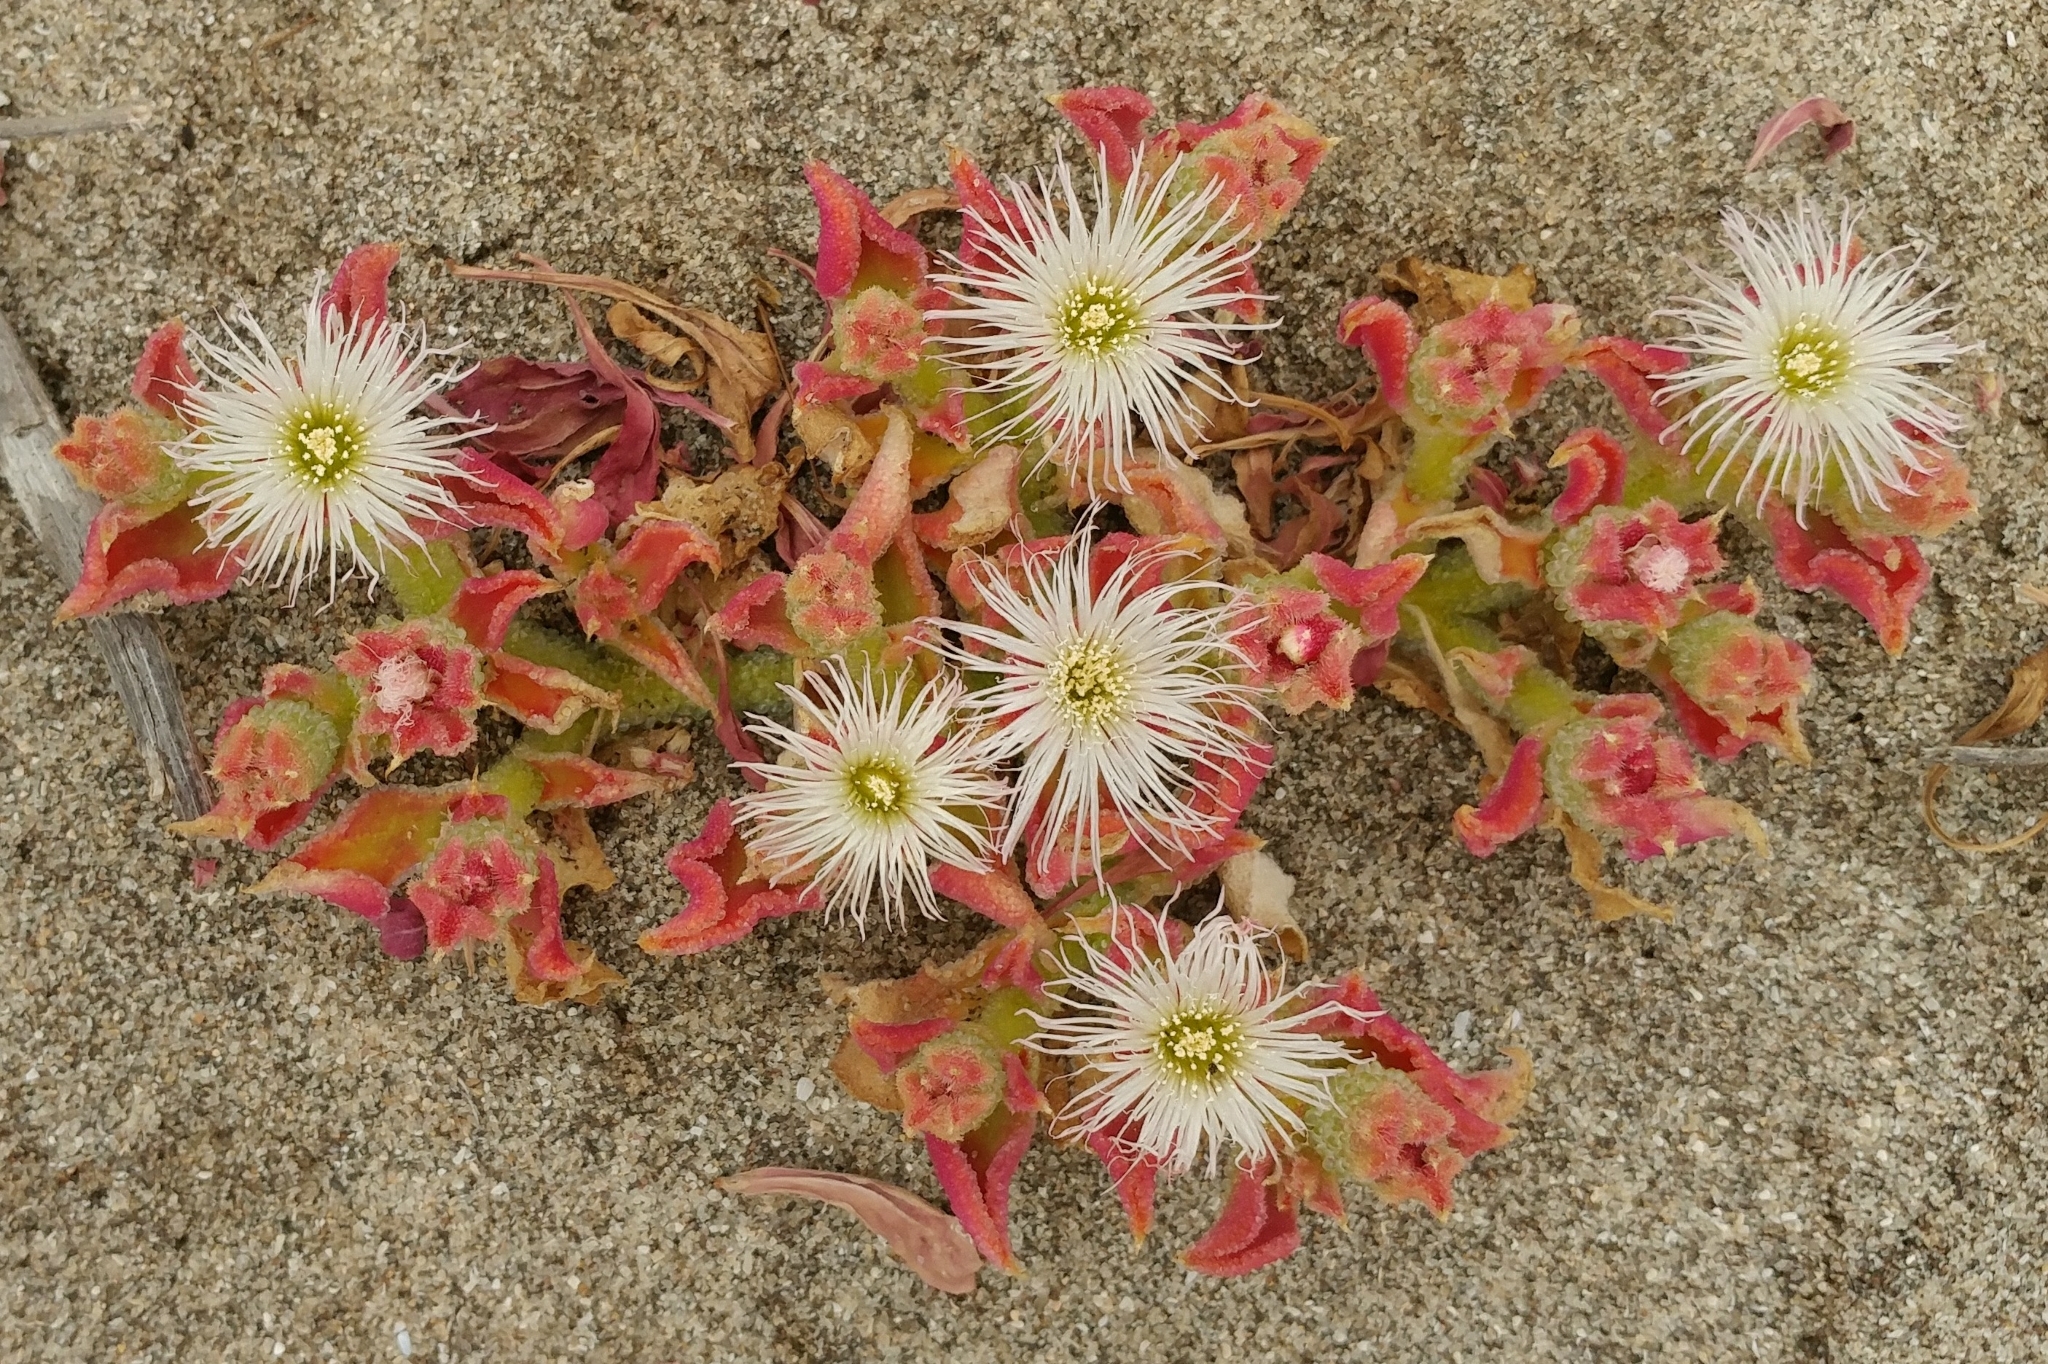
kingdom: Plantae
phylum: Tracheophyta
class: Magnoliopsida
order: Caryophyllales
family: Aizoaceae
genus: Mesembryanthemum
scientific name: Mesembryanthemum crystallinum
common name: Common iceplant
